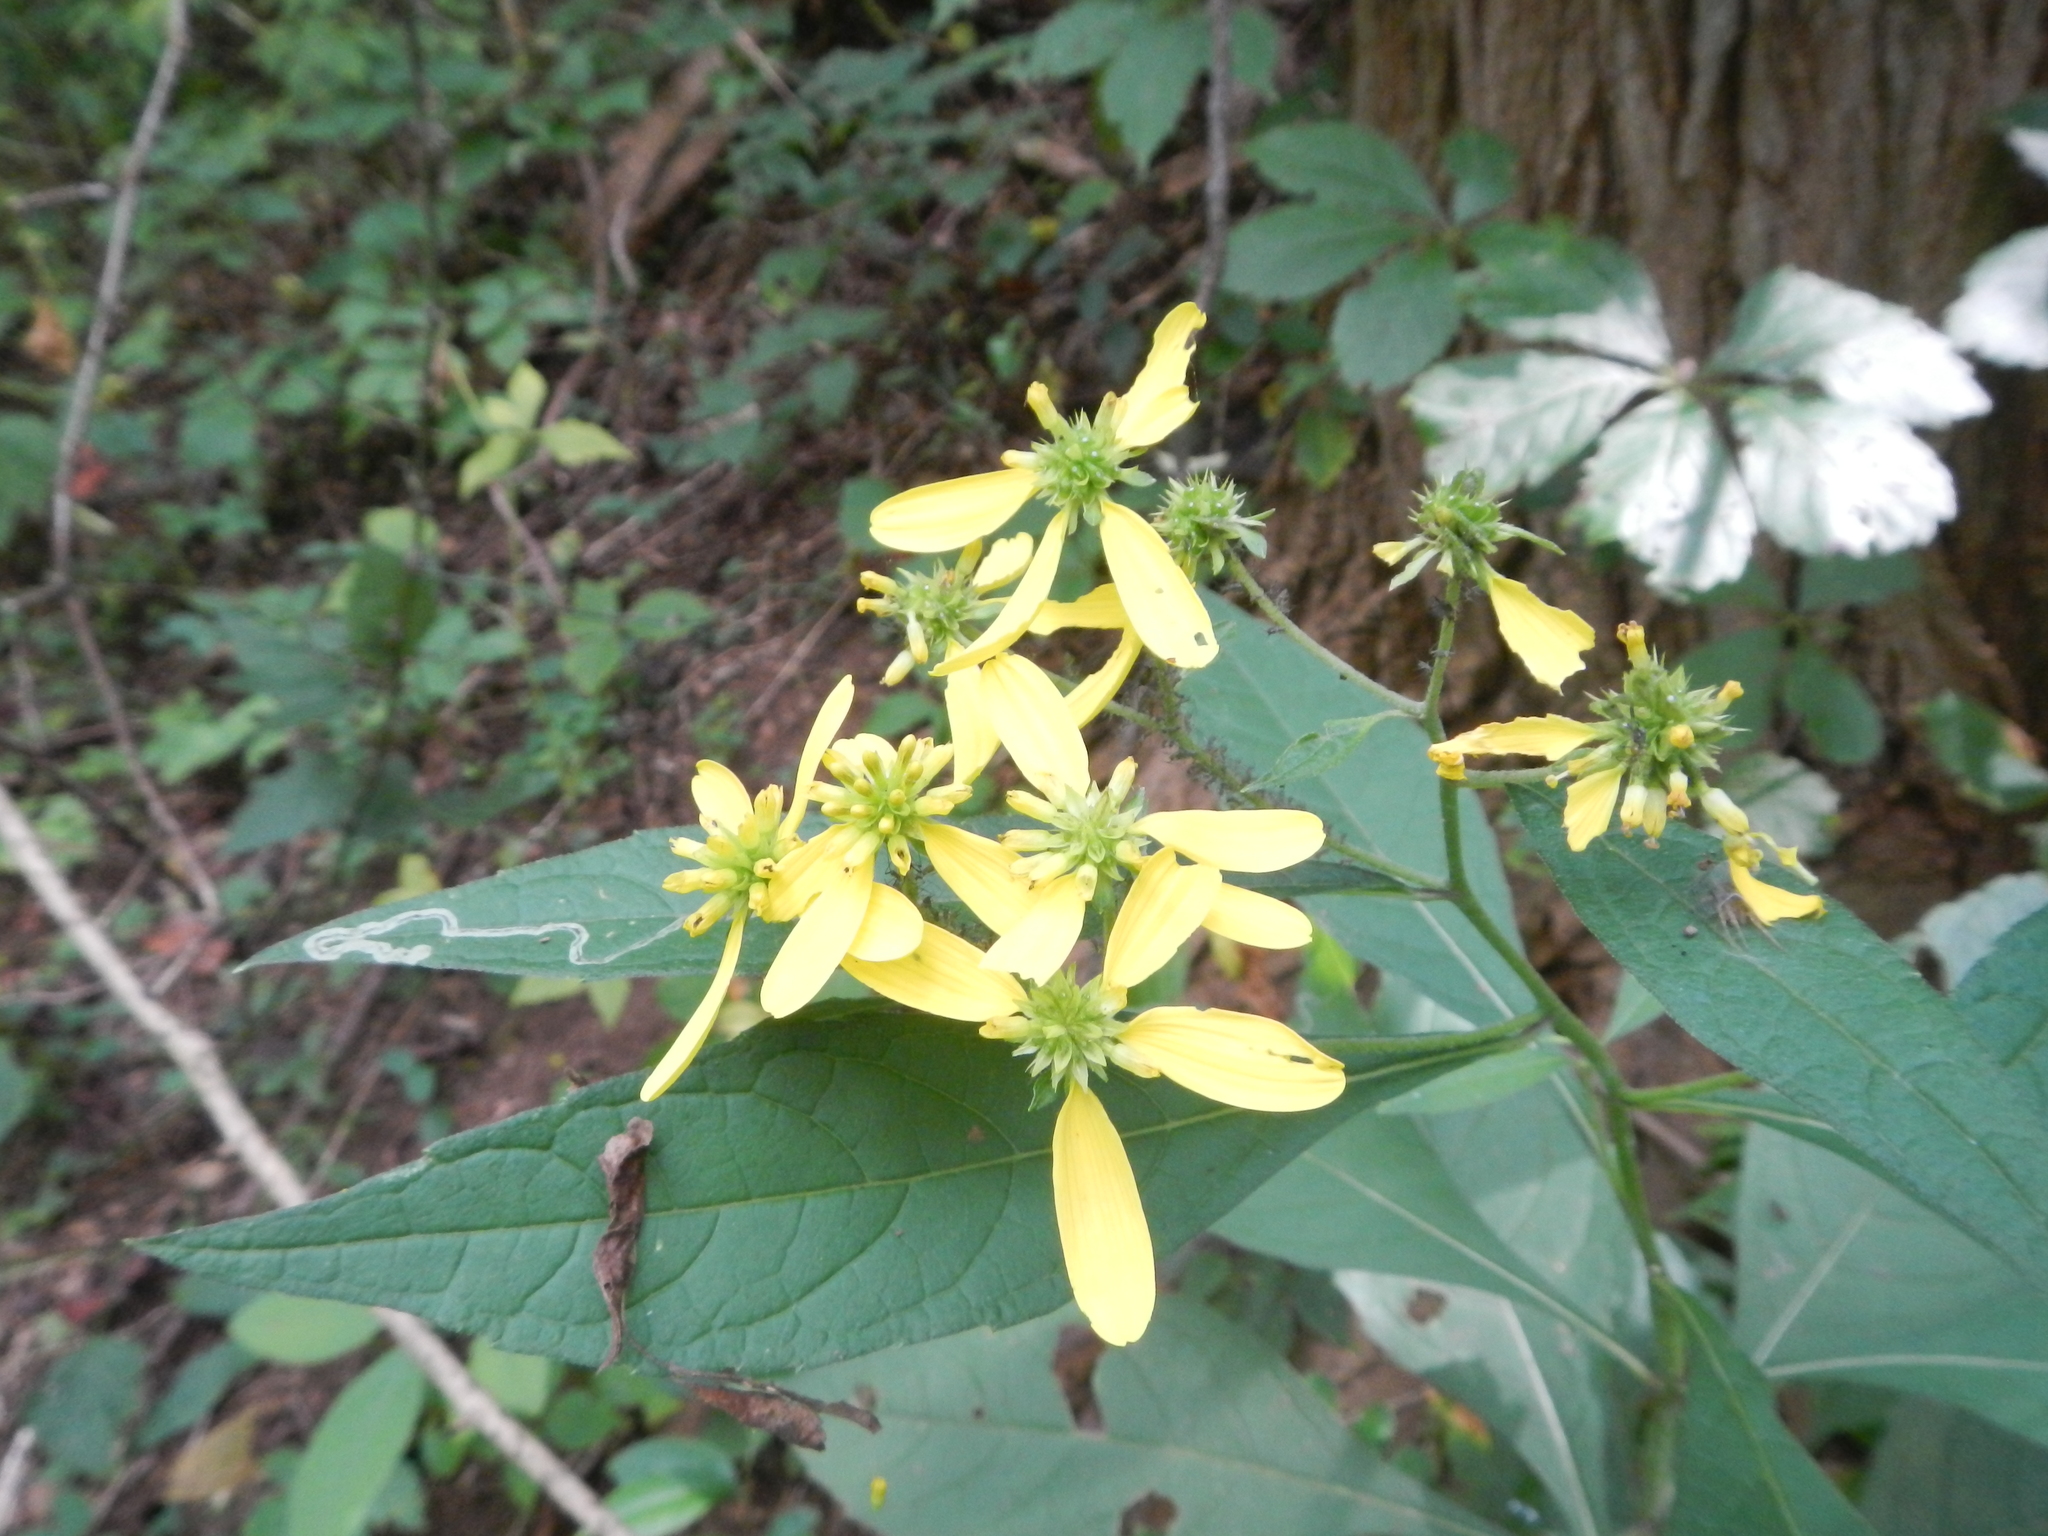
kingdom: Plantae
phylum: Tracheophyta
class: Magnoliopsida
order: Asterales
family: Asteraceae
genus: Verbesina
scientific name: Verbesina alternifolia
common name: Wingstem
